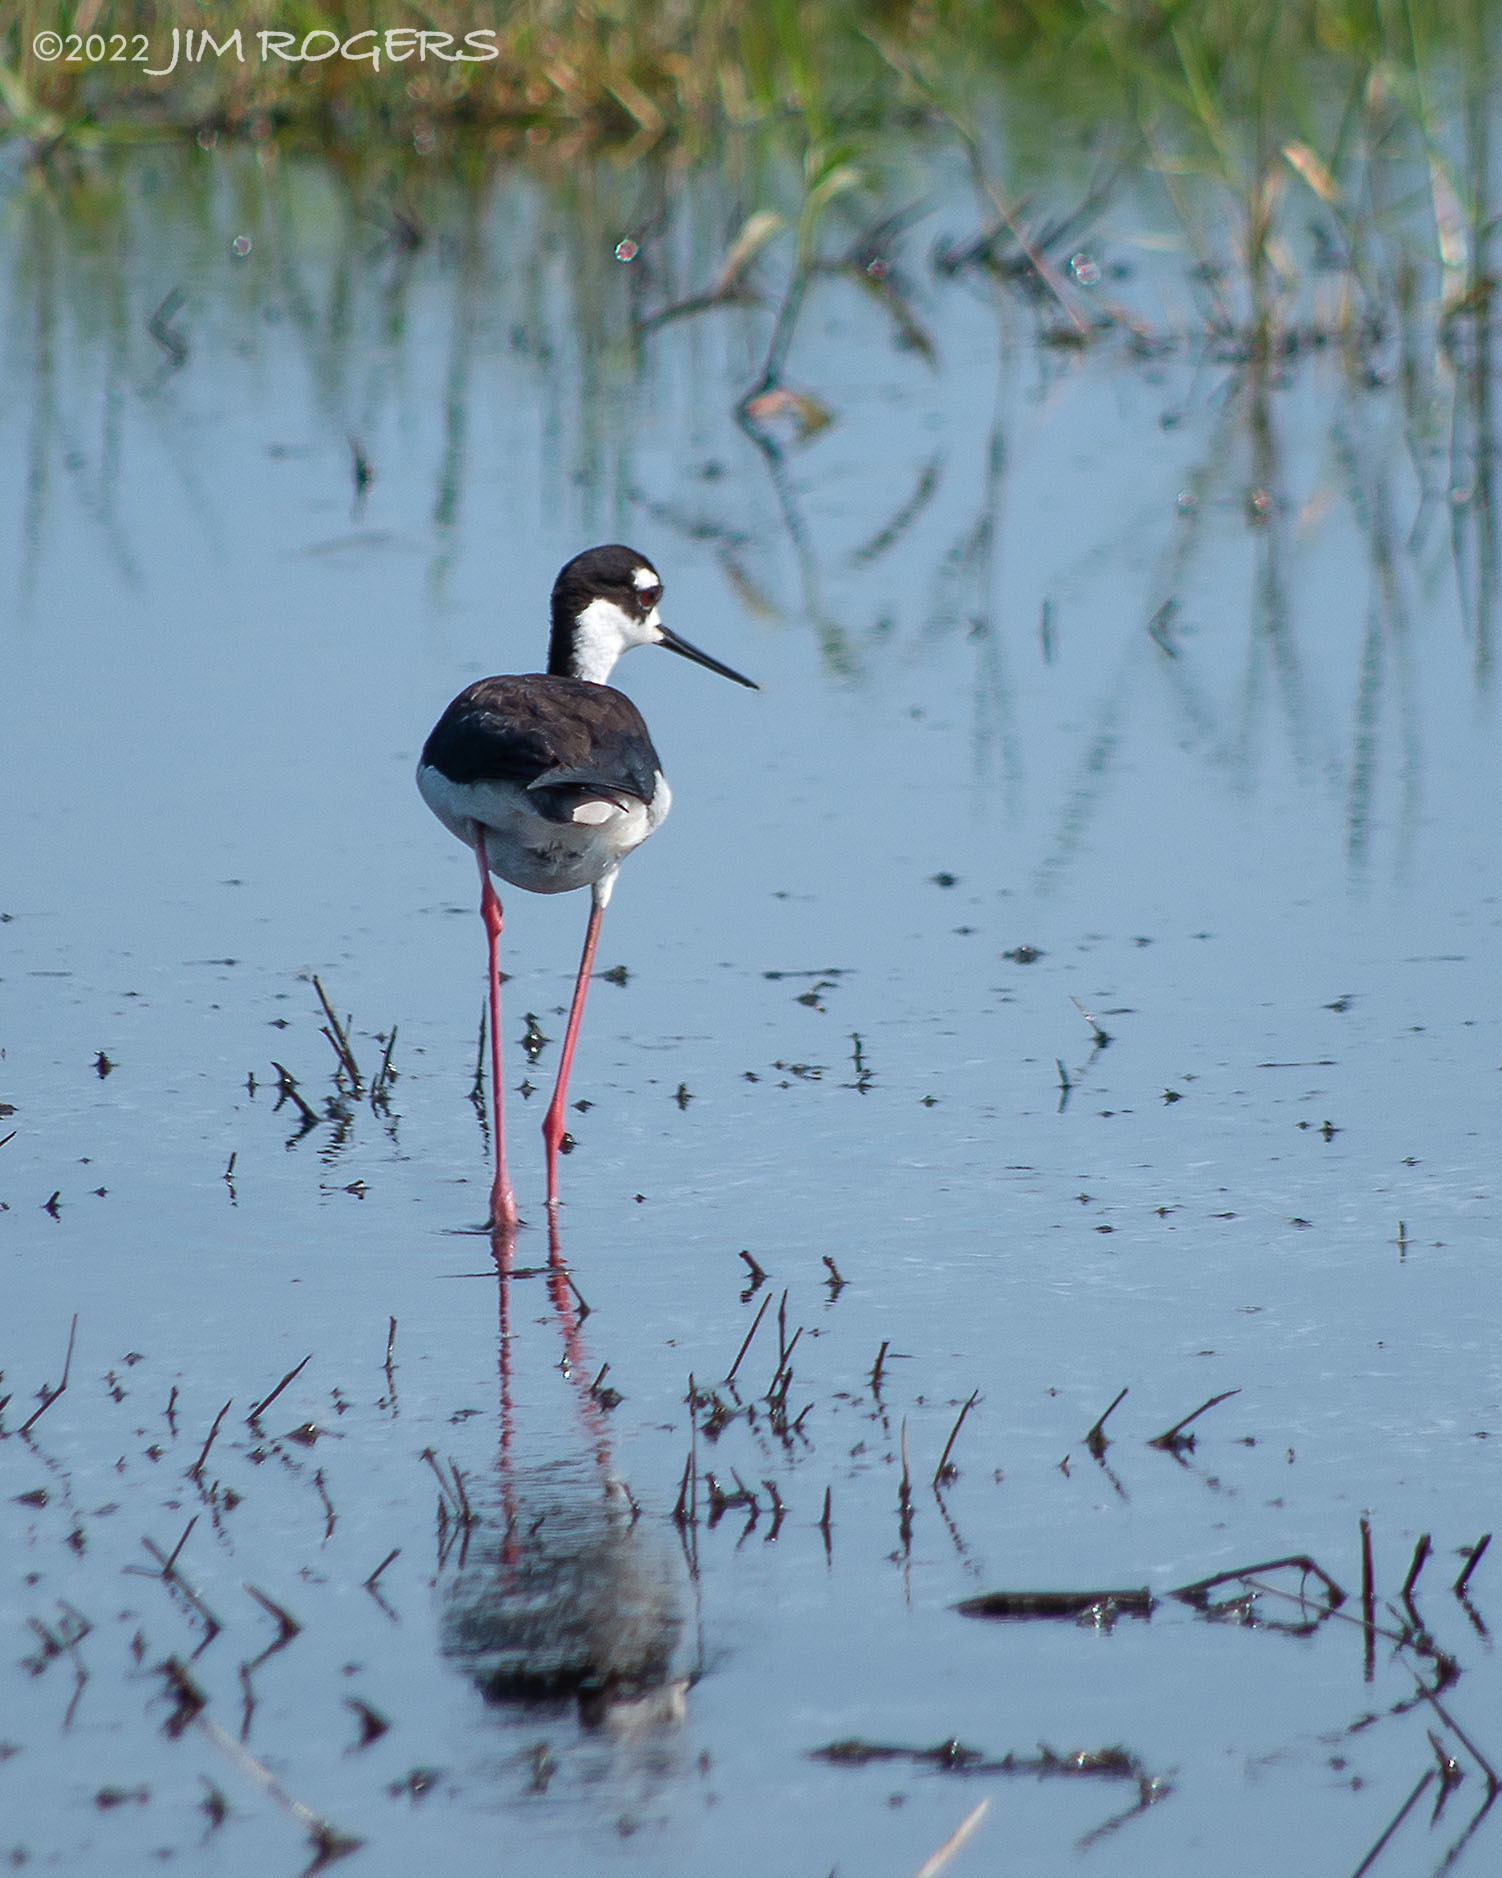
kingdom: Animalia
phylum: Chordata
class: Aves
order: Charadriiformes
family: Recurvirostridae
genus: Himantopus
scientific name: Himantopus mexicanus
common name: Black-necked stilt
